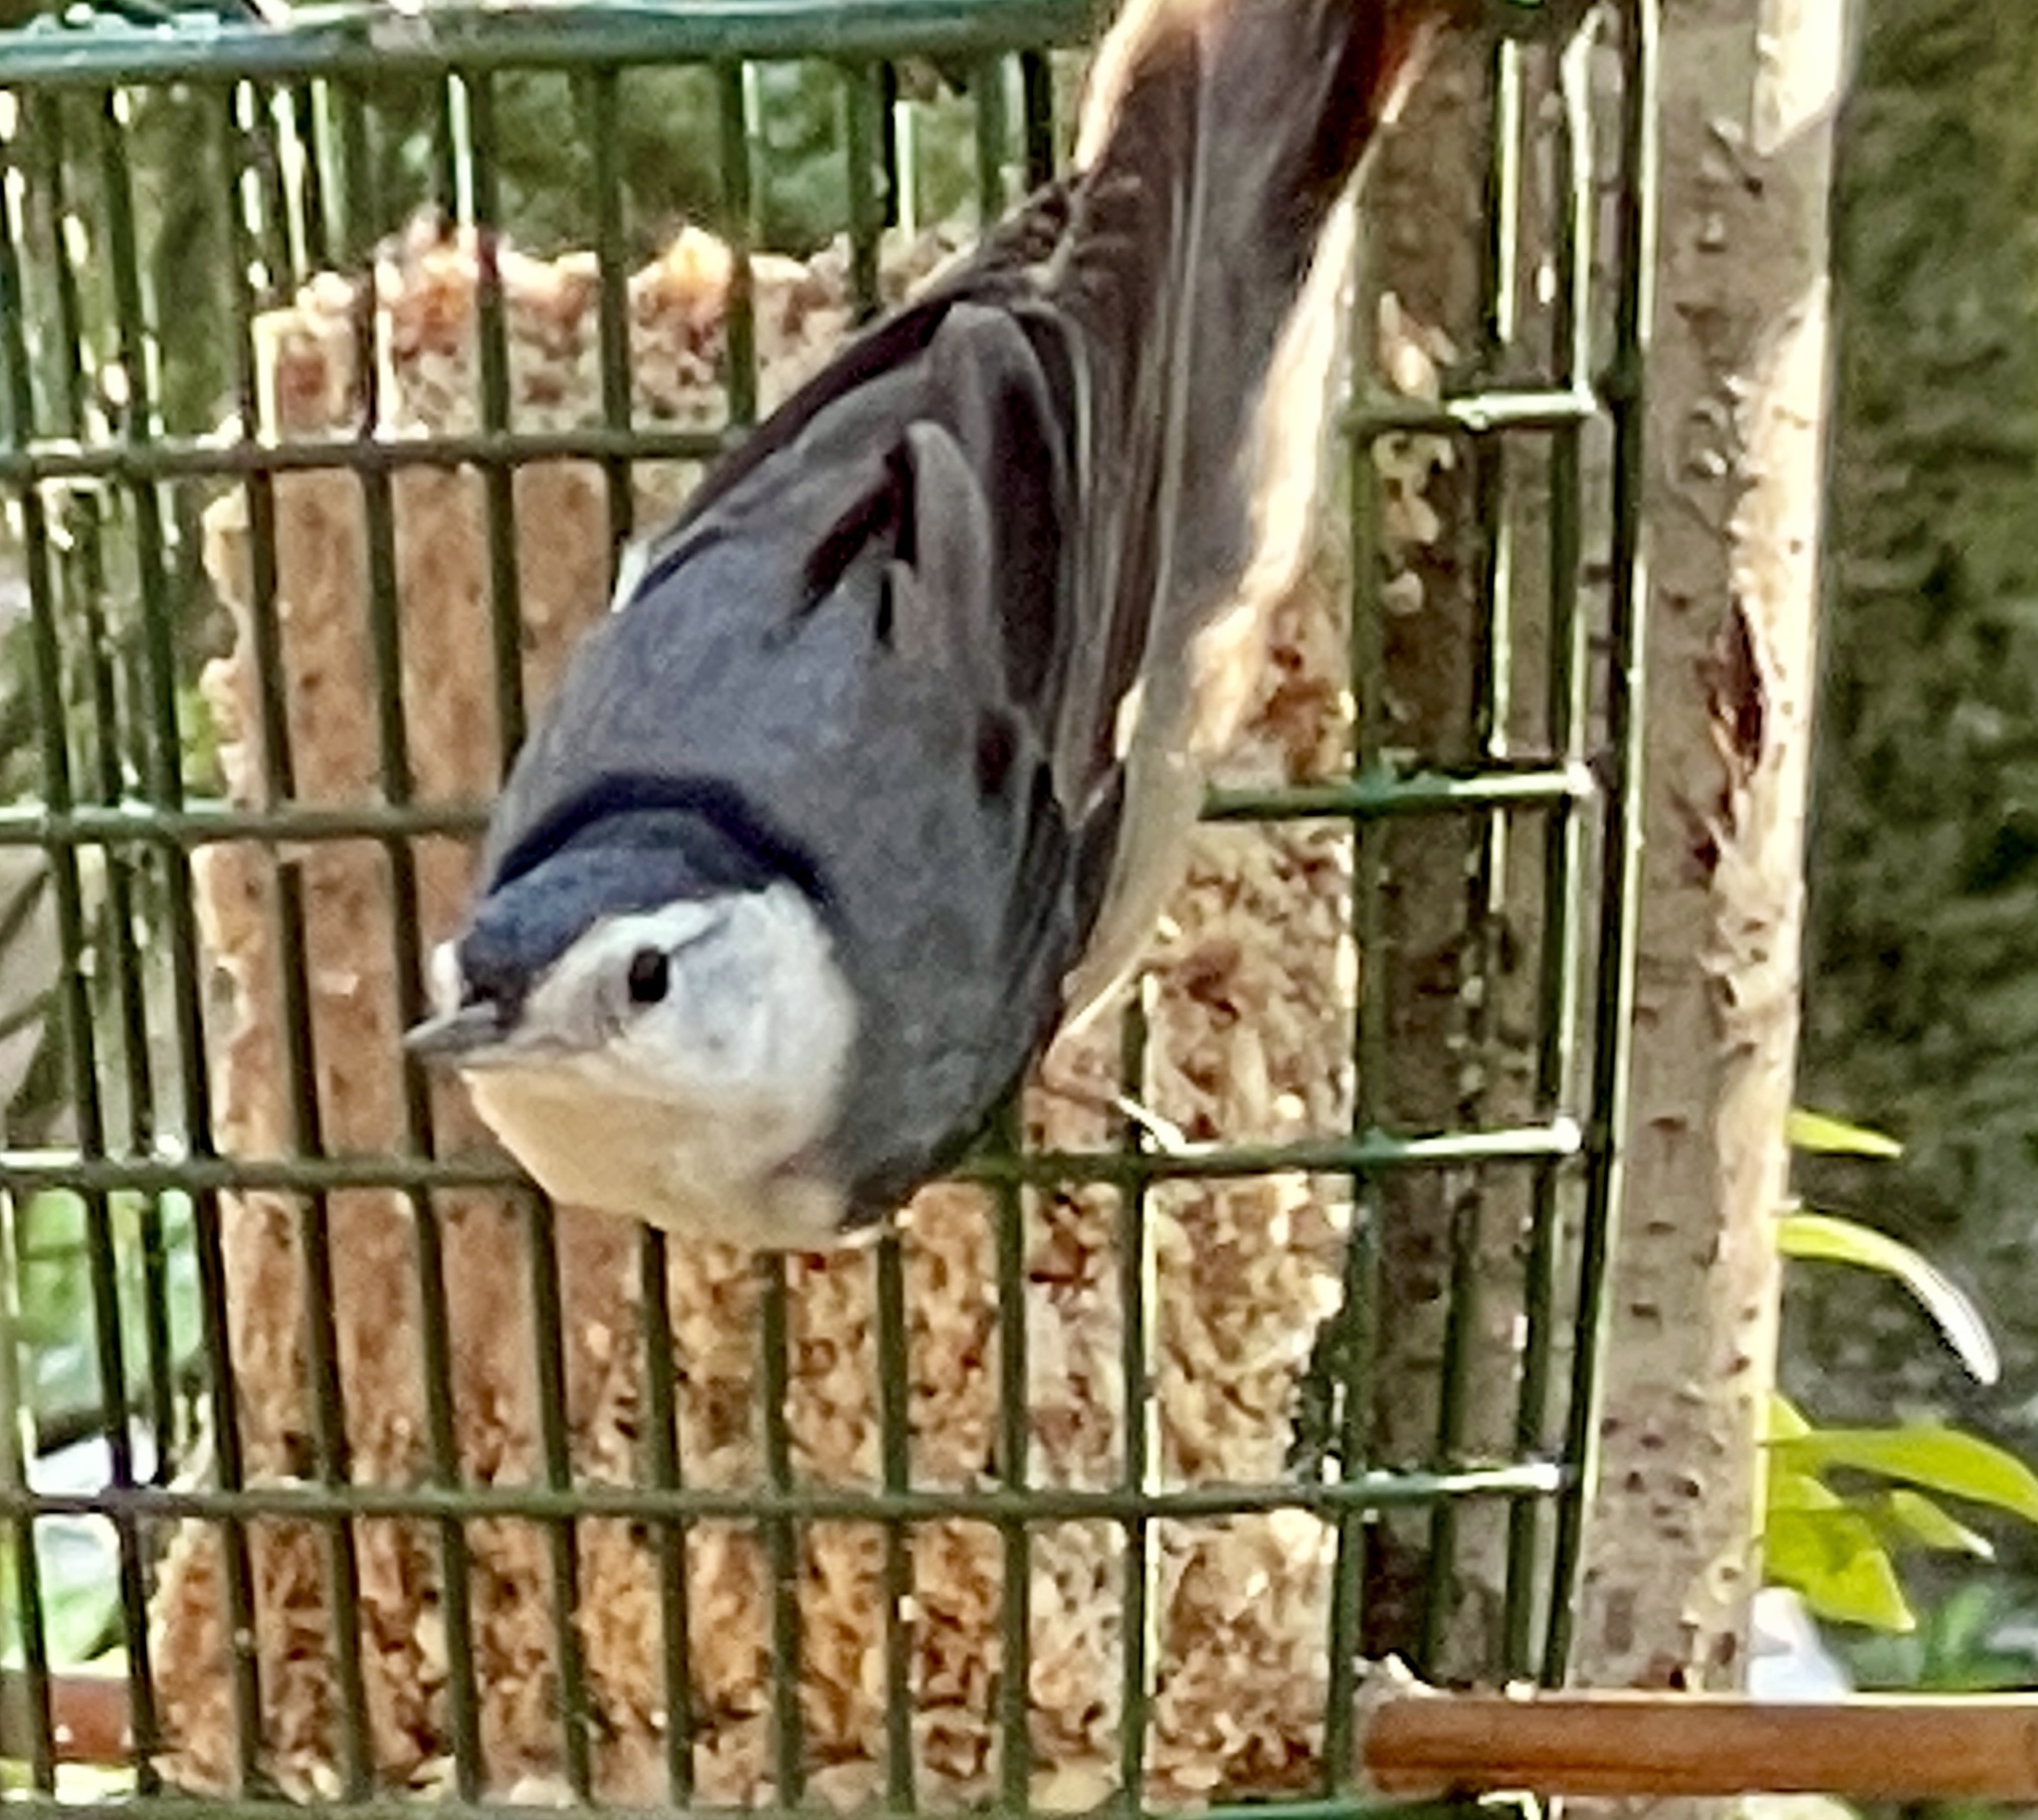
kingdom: Animalia
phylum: Chordata
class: Aves
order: Passeriformes
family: Sittidae
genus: Sitta
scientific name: Sitta carolinensis
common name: White-breasted nuthatch
